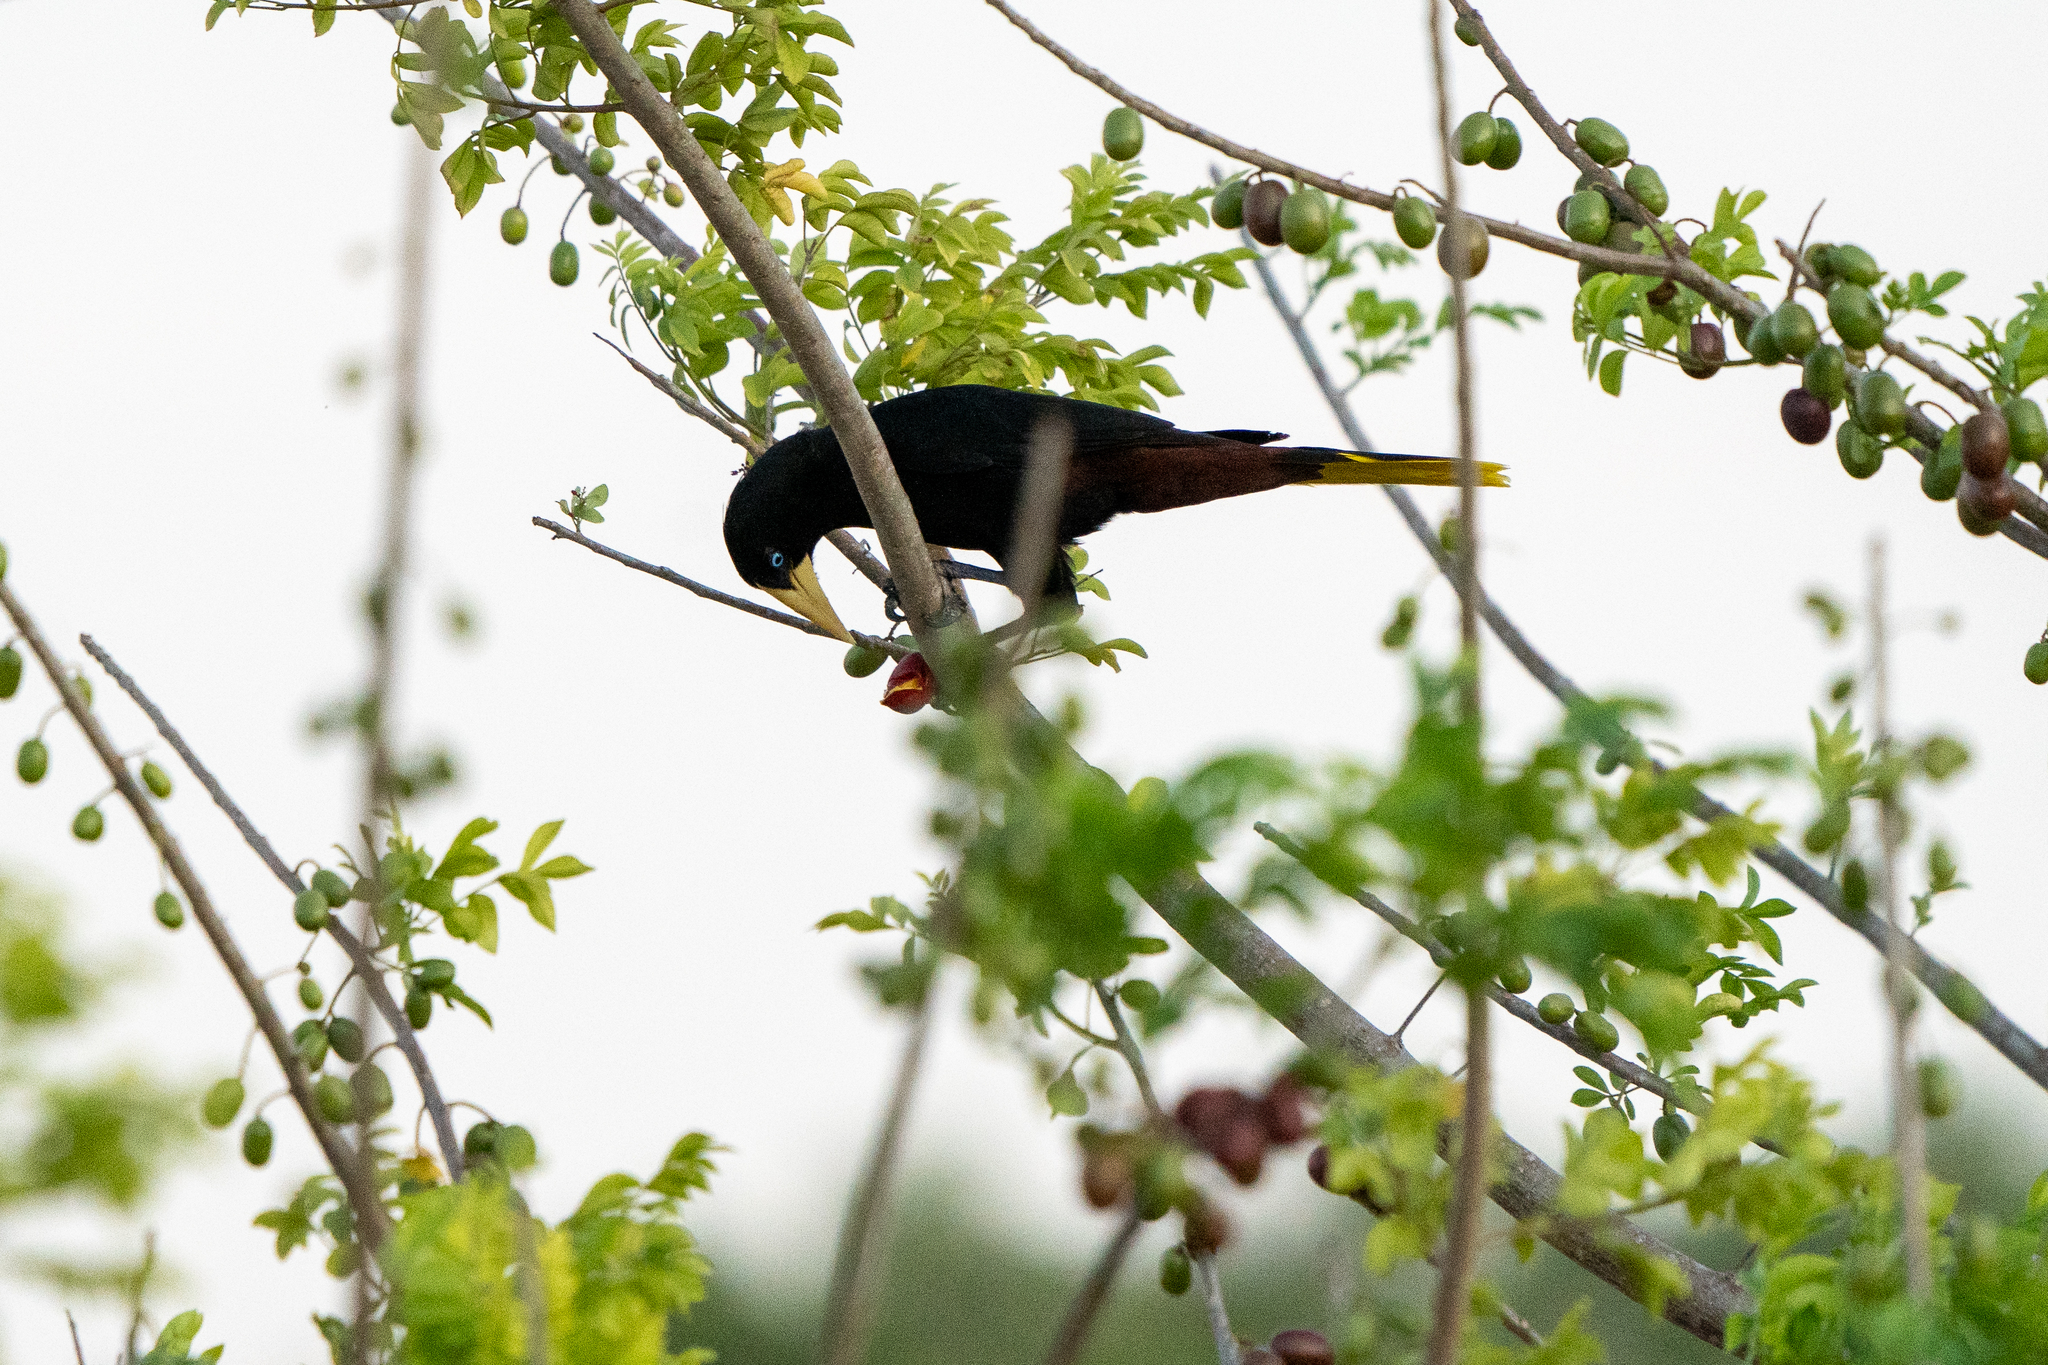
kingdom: Animalia
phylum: Chordata
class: Aves
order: Passeriformes
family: Icteridae
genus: Psarocolius
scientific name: Psarocolius decumanus
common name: Crested oropendola
